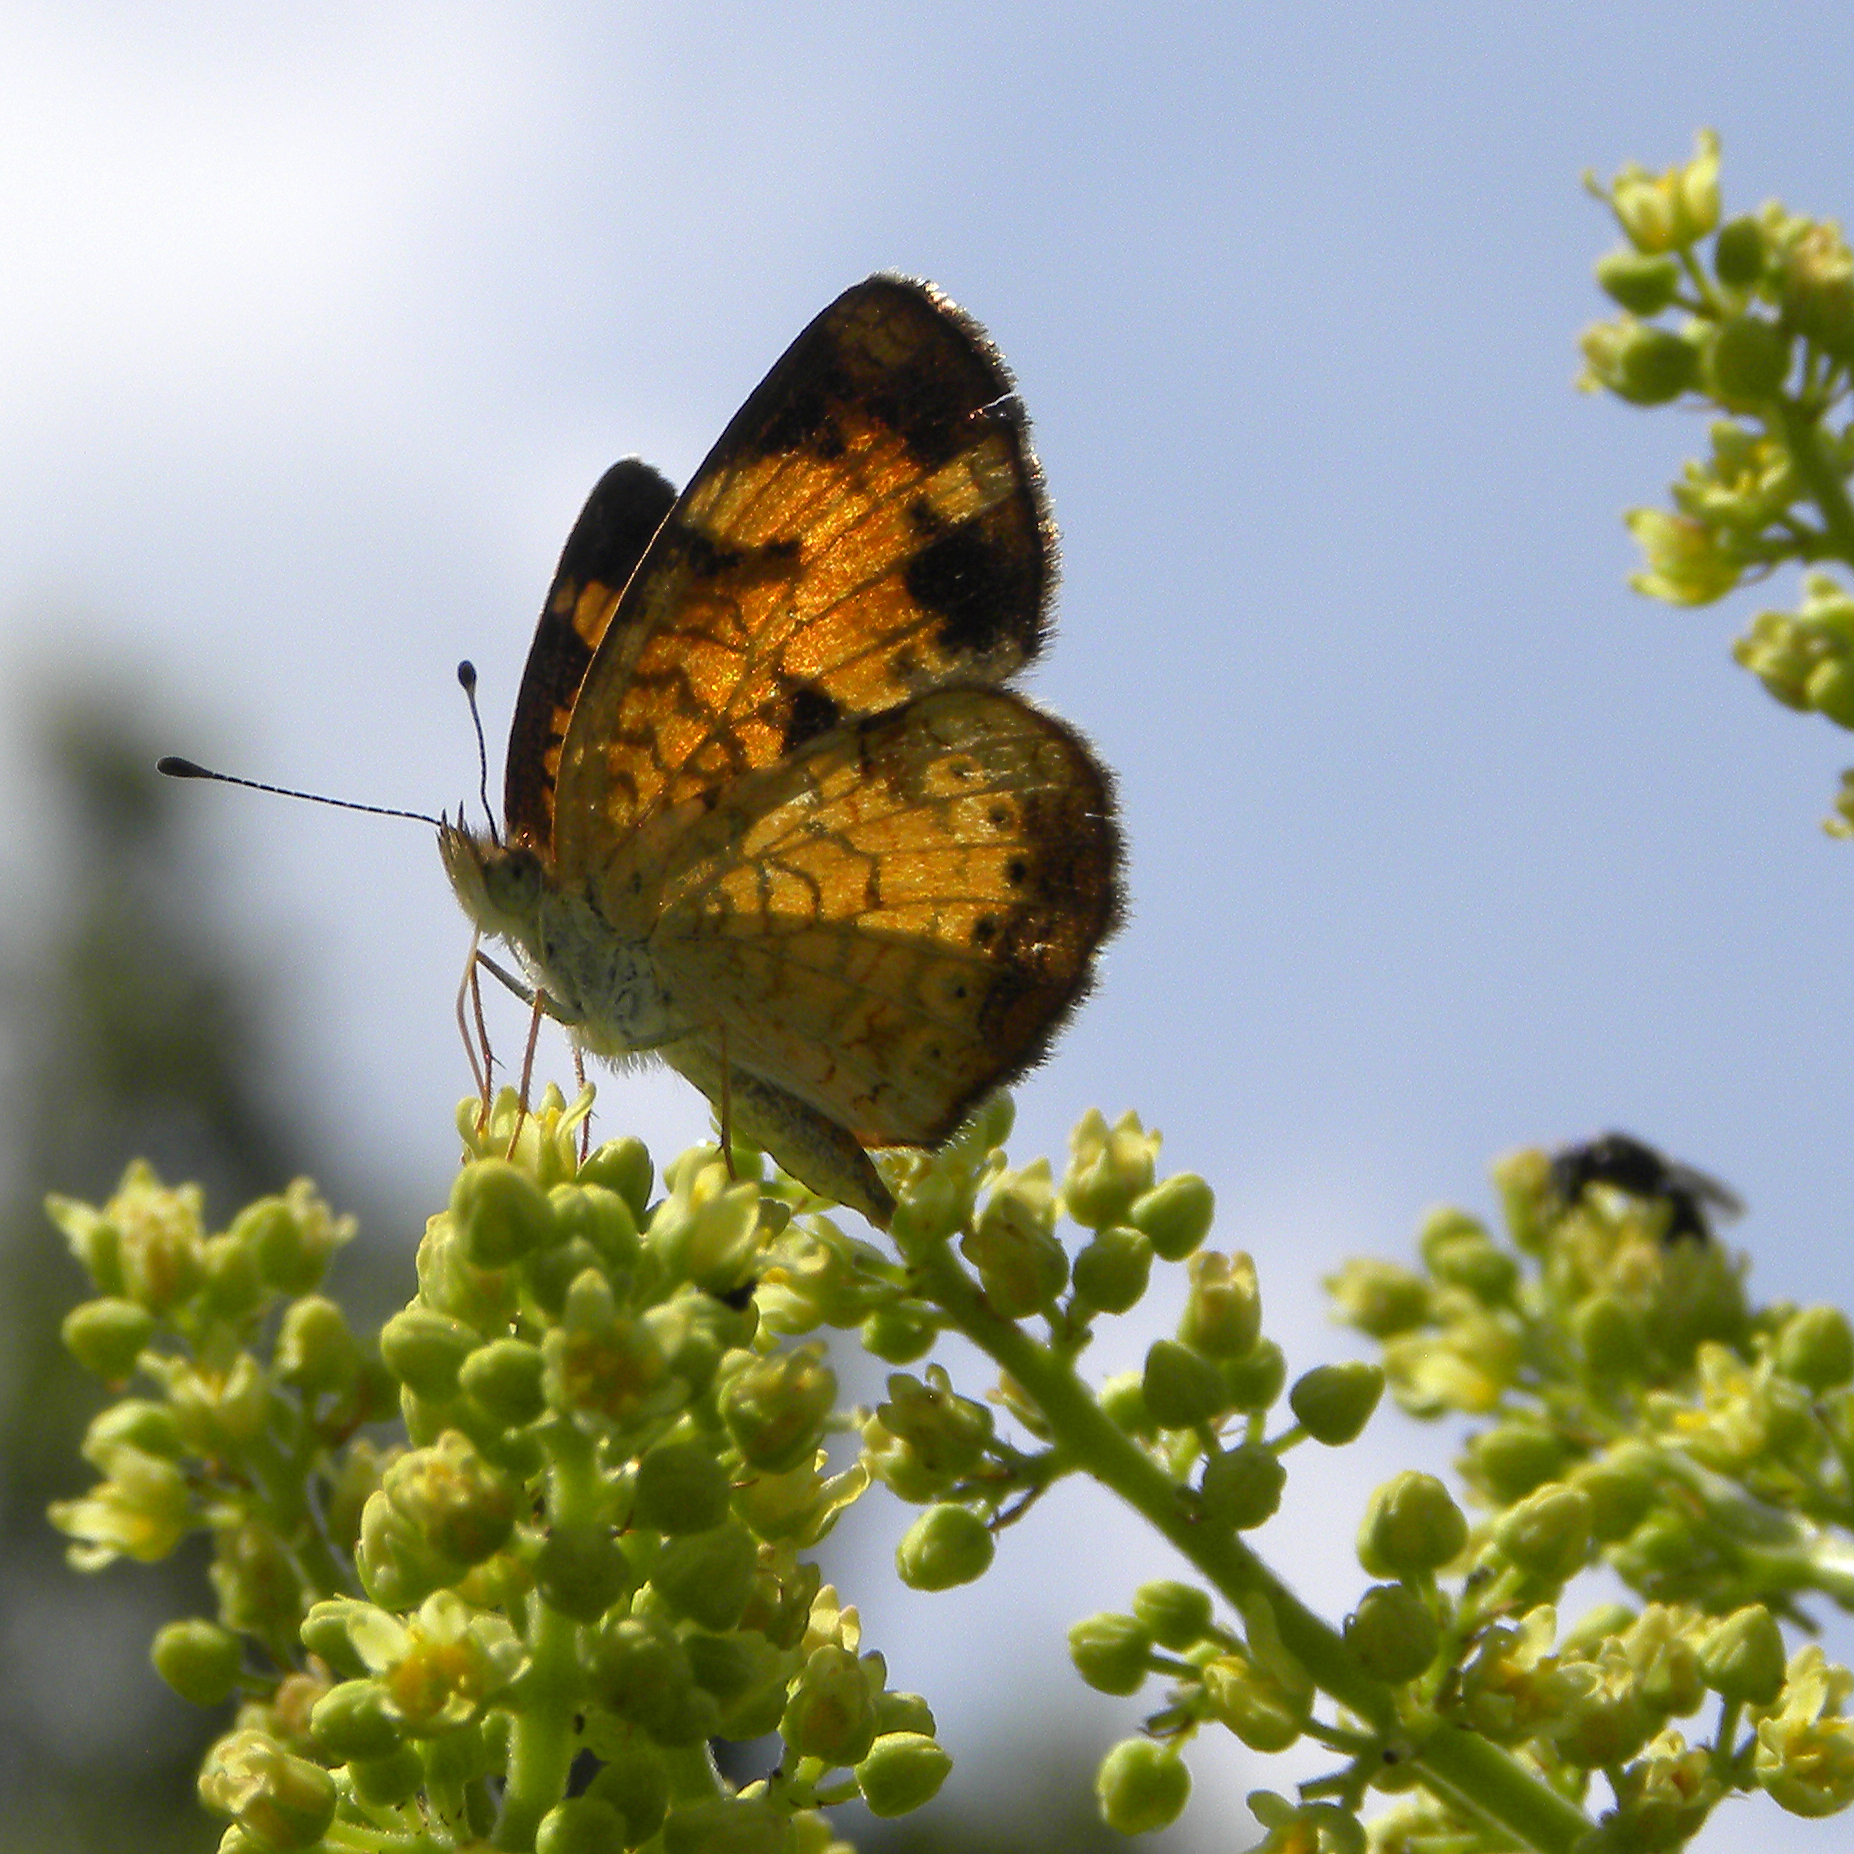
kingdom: Animalia
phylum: Arthropoda
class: Insecta
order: Lepidoptera
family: Nymphalidae
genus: Phyciodes
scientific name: Phyciodes tharos
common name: Pearl crescent
